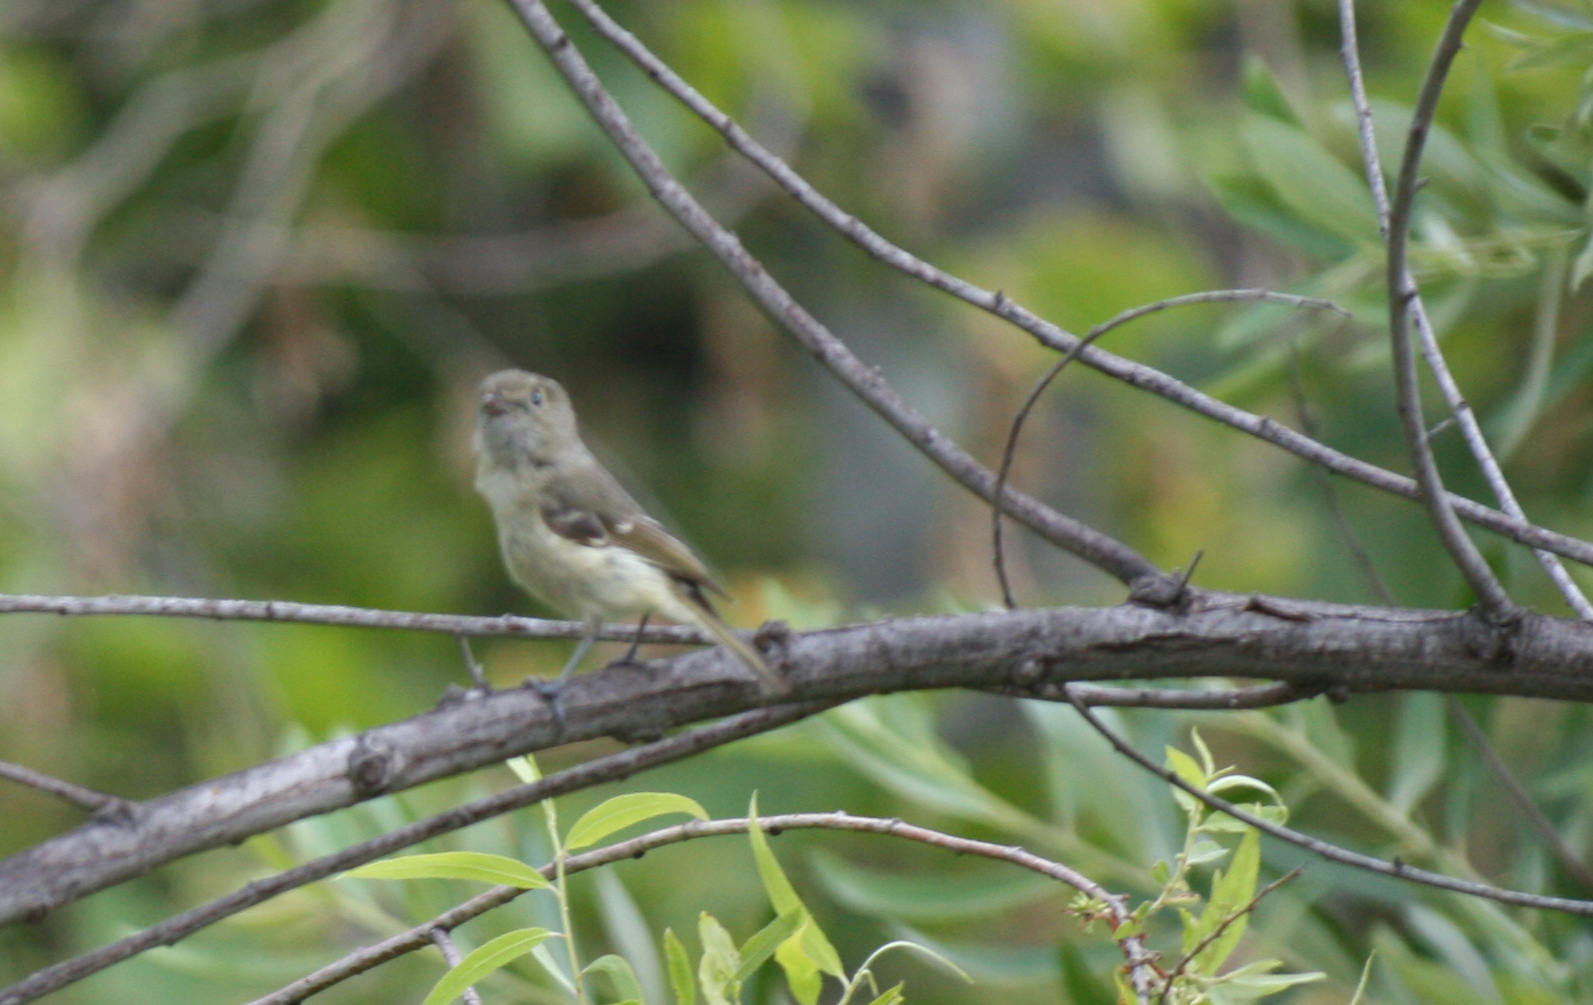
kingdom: Animalia
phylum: Chordata
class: Aves
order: Passeriformes
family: Vireonidae
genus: Vireo
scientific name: Vireo huttoni
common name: Hutton's vireo
